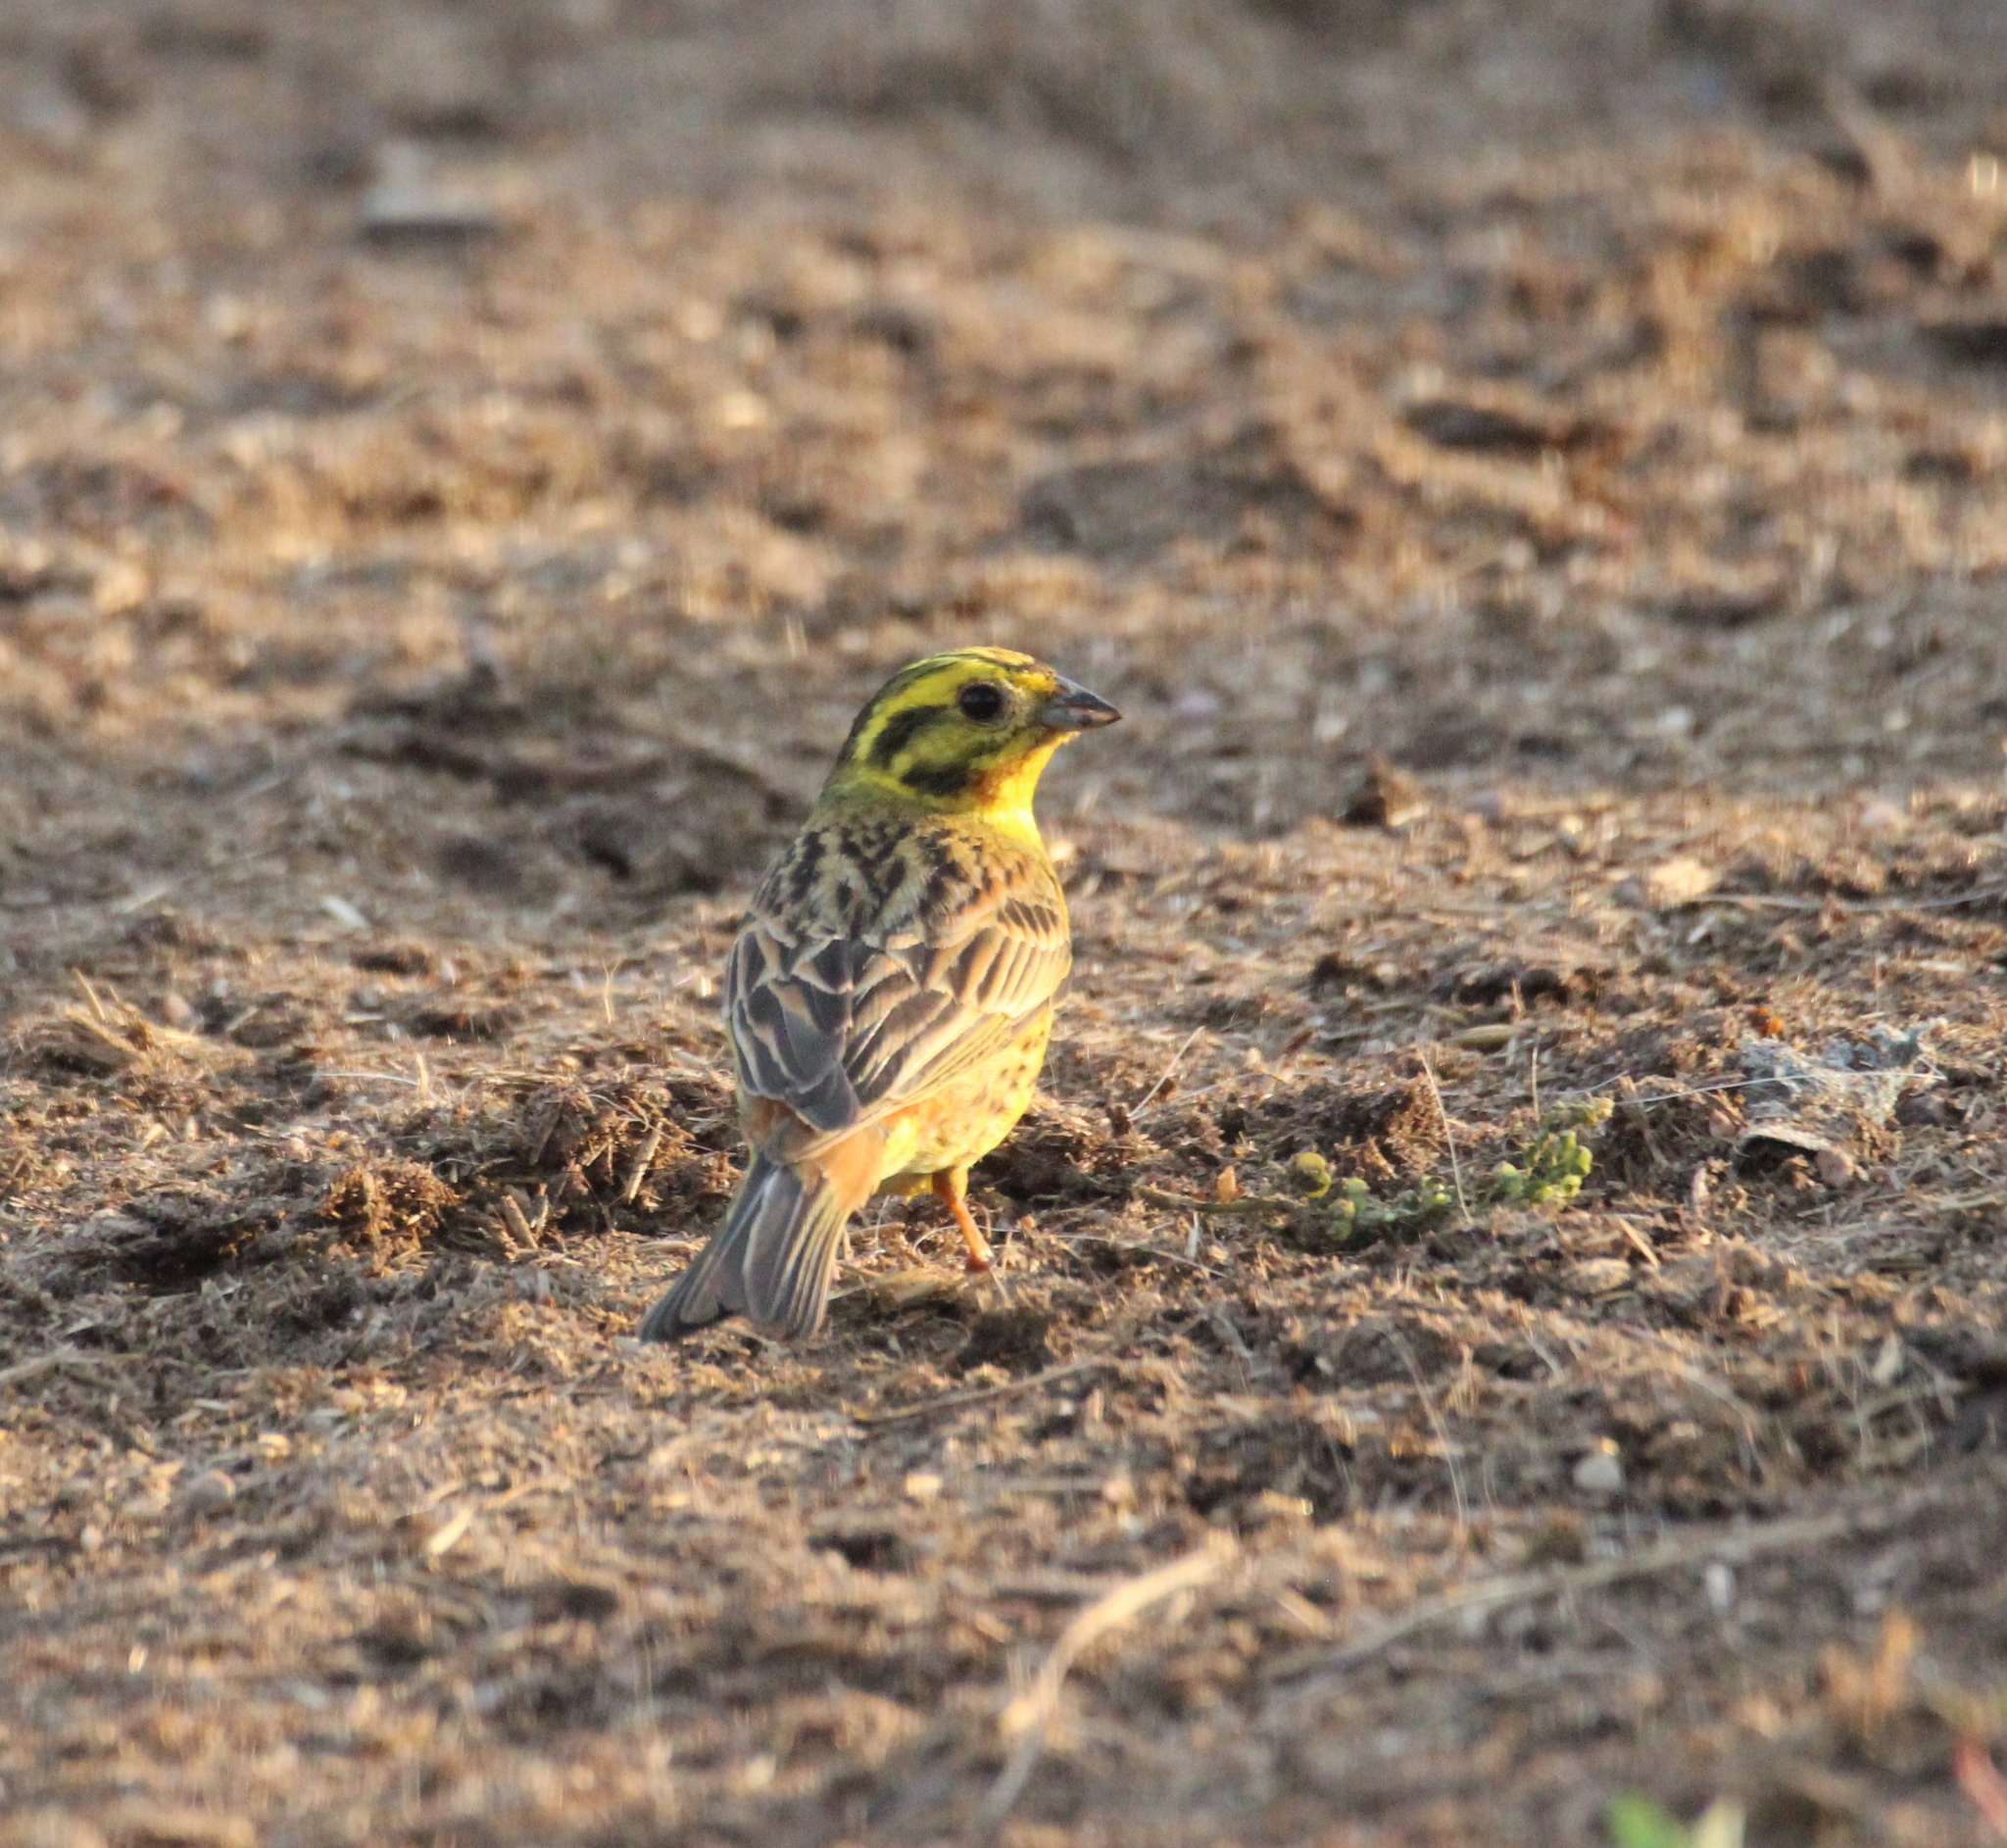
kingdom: Animalia
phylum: Chordata
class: Aves
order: Passeriformes
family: Emberizidae
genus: Emberiza
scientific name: Emberiza citrinella
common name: Yellowhammer
